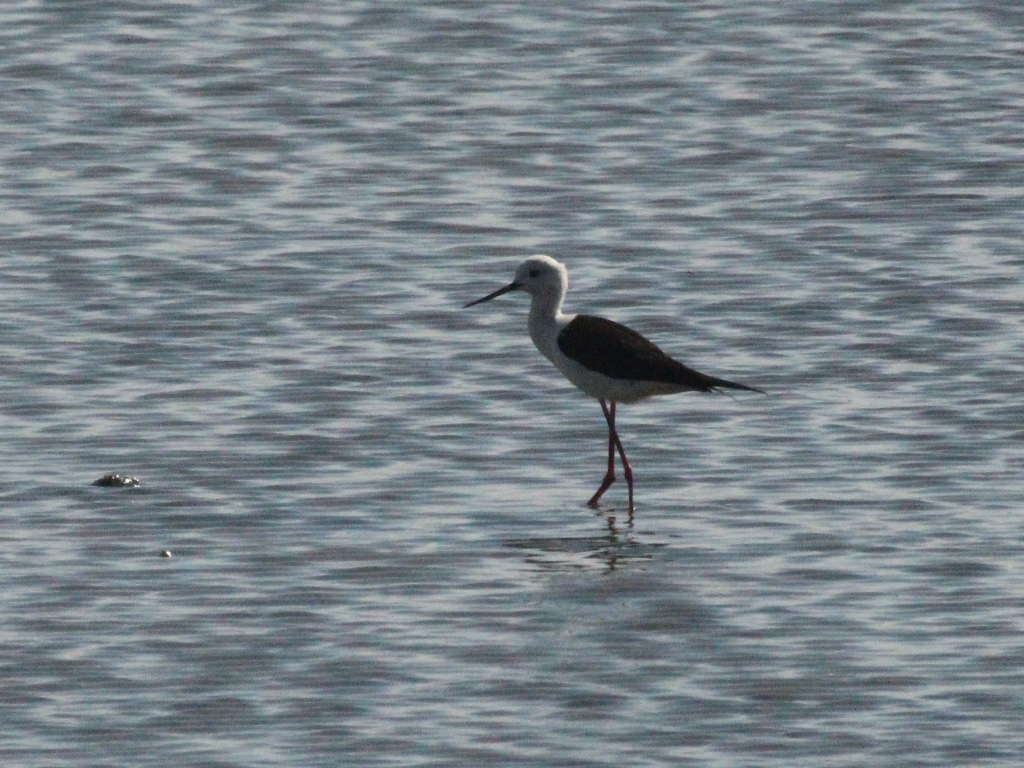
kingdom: Animalia
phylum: Chordata
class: Aves
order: Charadriiformes
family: Recurvirostridae
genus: Himantopus
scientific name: Himantopus himantopus
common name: Black-winged stilt
